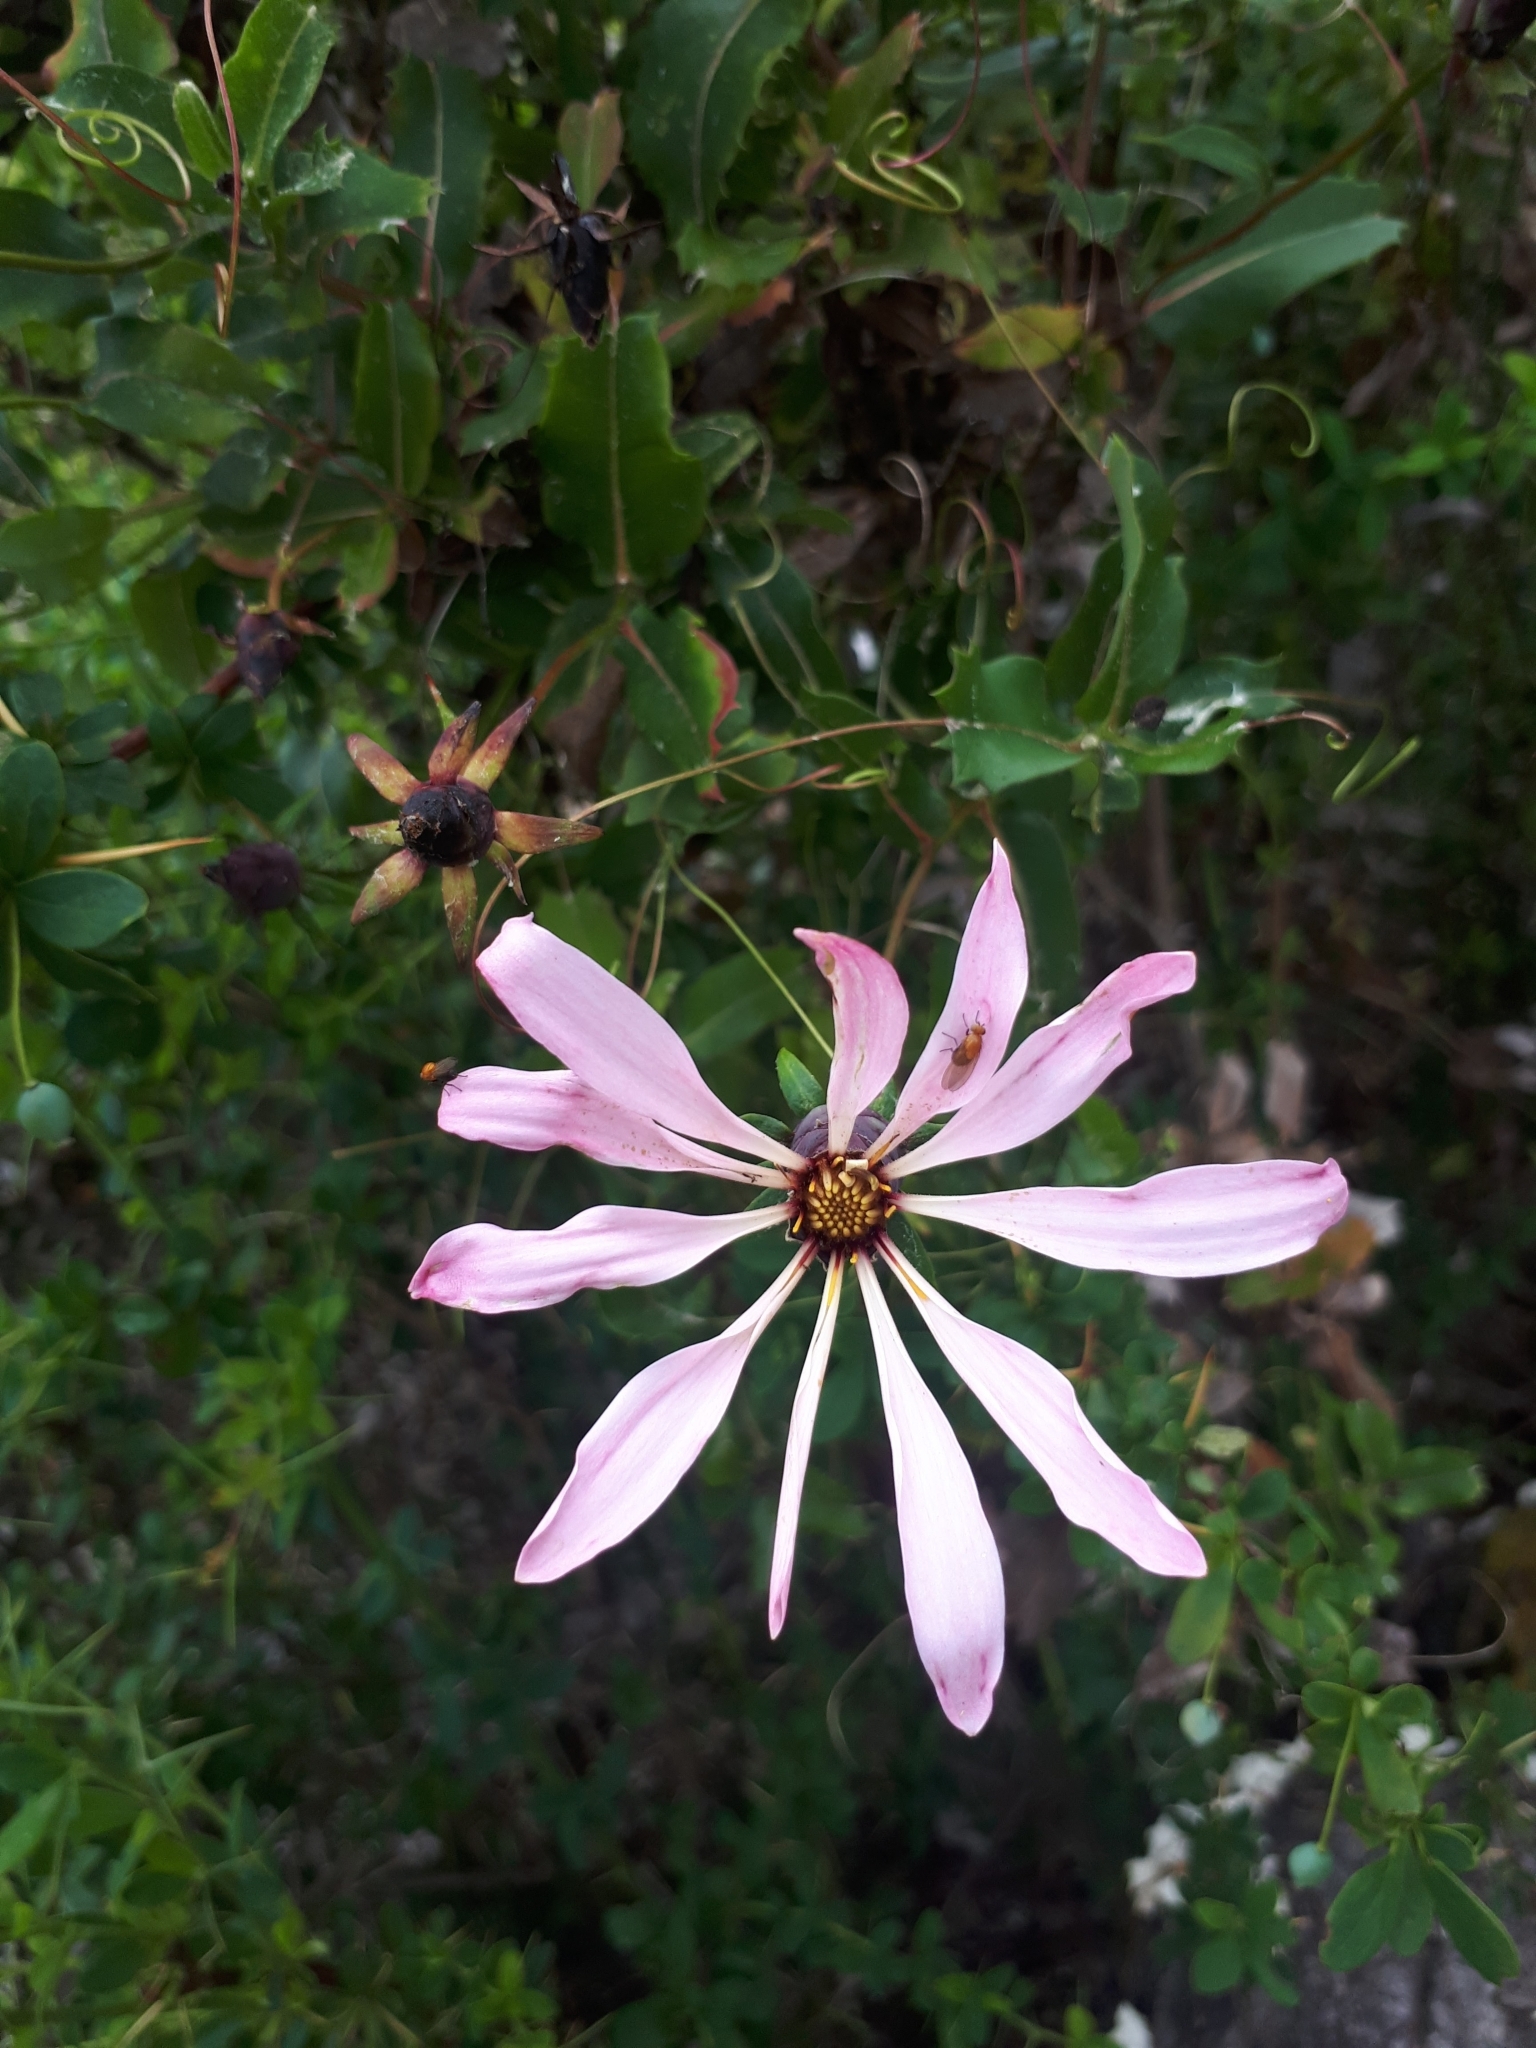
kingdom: Plantae
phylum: Tracheophyta
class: Magnoliopsida
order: Asterales
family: Asteraceae
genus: Mutisia
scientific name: Mutisia spinosa
